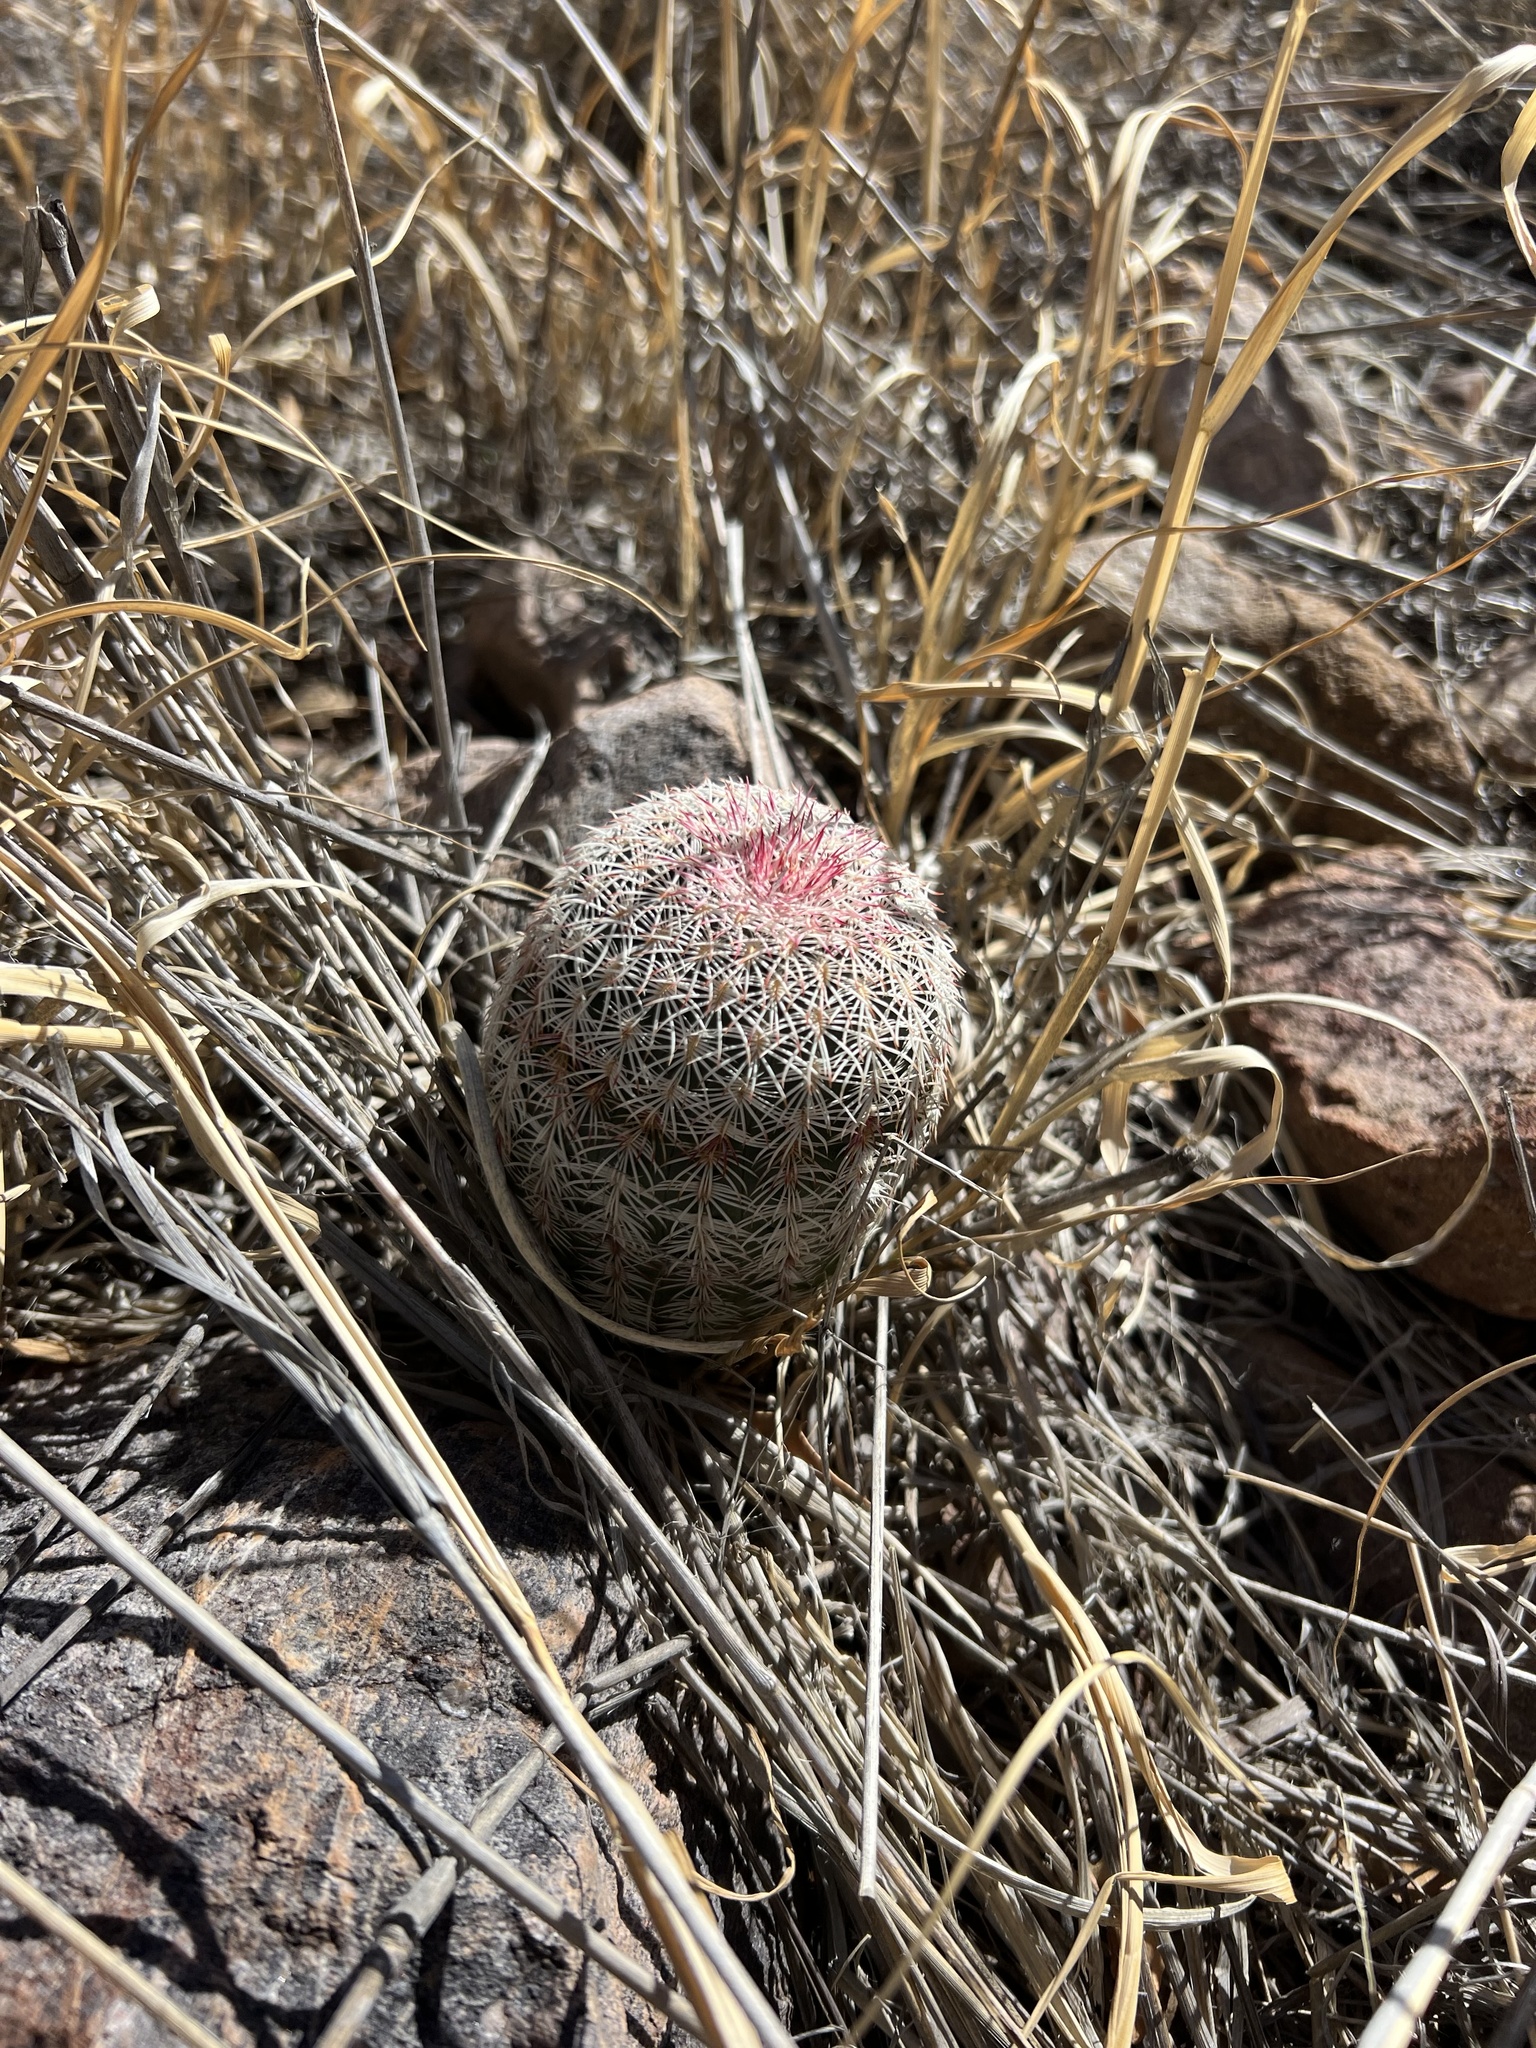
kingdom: Plantae
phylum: Tracheophyta
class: Magnoliopsida
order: Caryophyllales
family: Cactaceae
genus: Echinocereus
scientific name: Echinocereus rigidissimus
